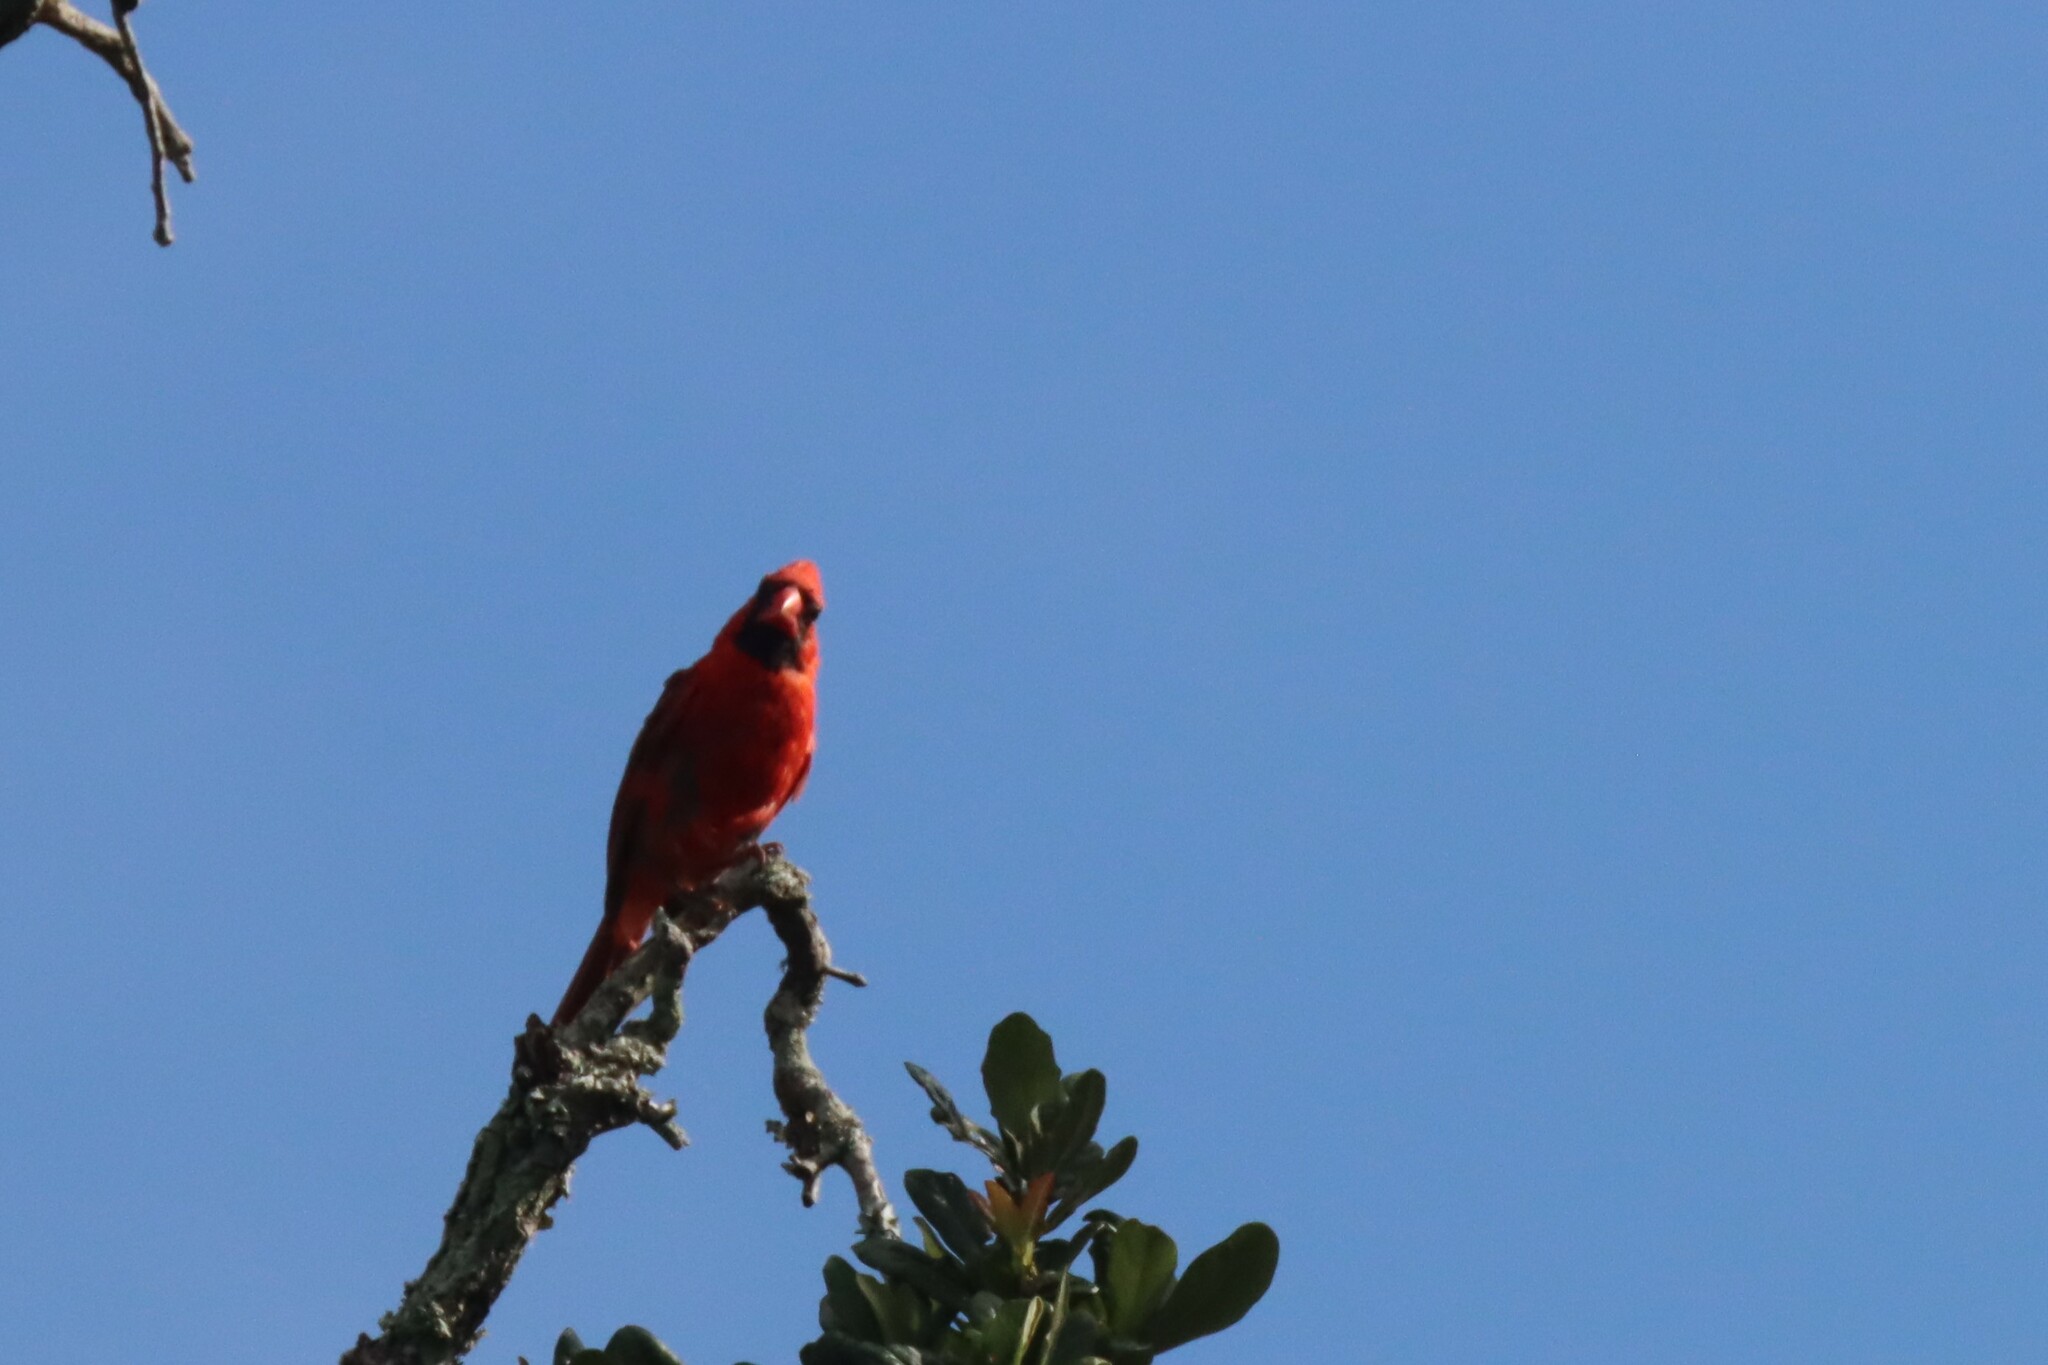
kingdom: Animalia
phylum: Chordata
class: Aves
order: Passeriformes
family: Cardinalidae
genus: Cardinalis
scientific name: Cardinalis cardinalis
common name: Northern cardinal
